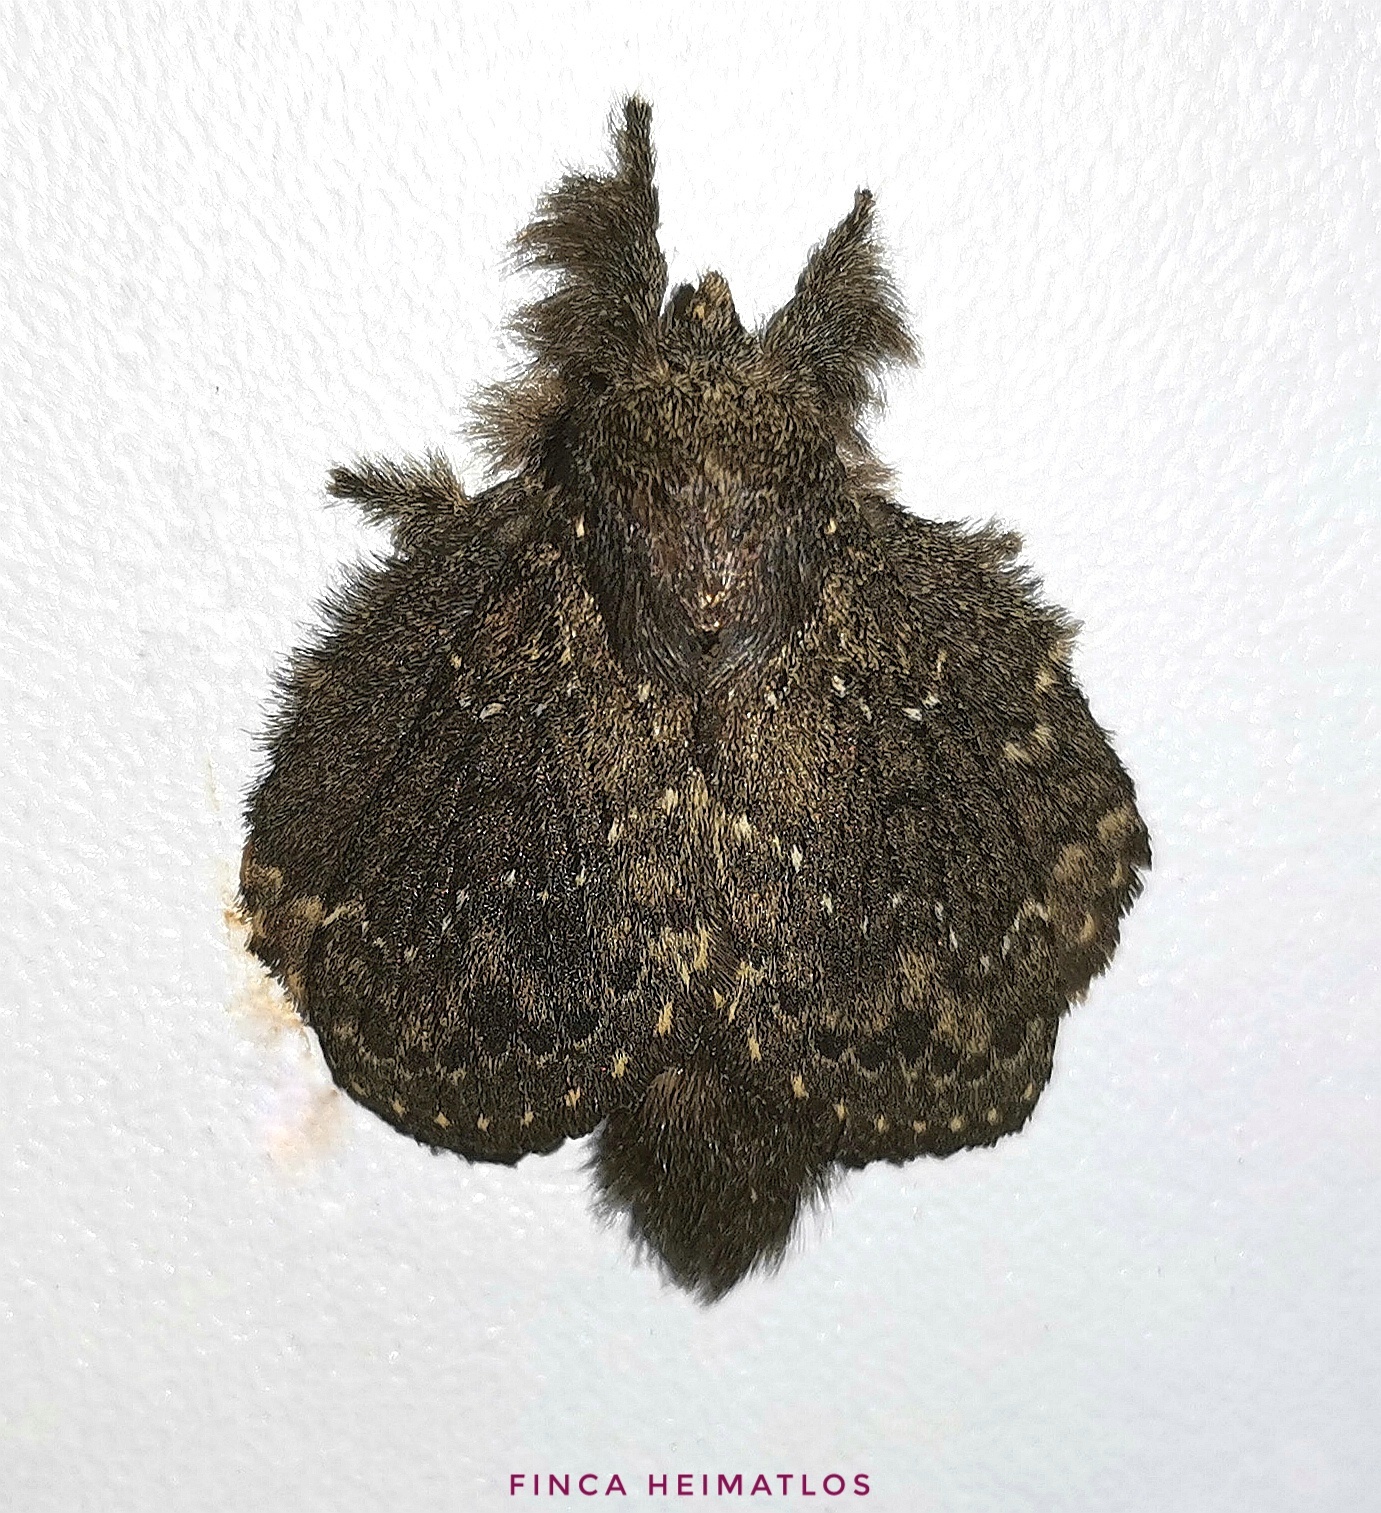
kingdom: Animalia
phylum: Arthropoda
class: Insecta
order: Lepidoptera
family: Lasiocampidae
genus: Euglyphis
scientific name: Euglyphis melancholica
